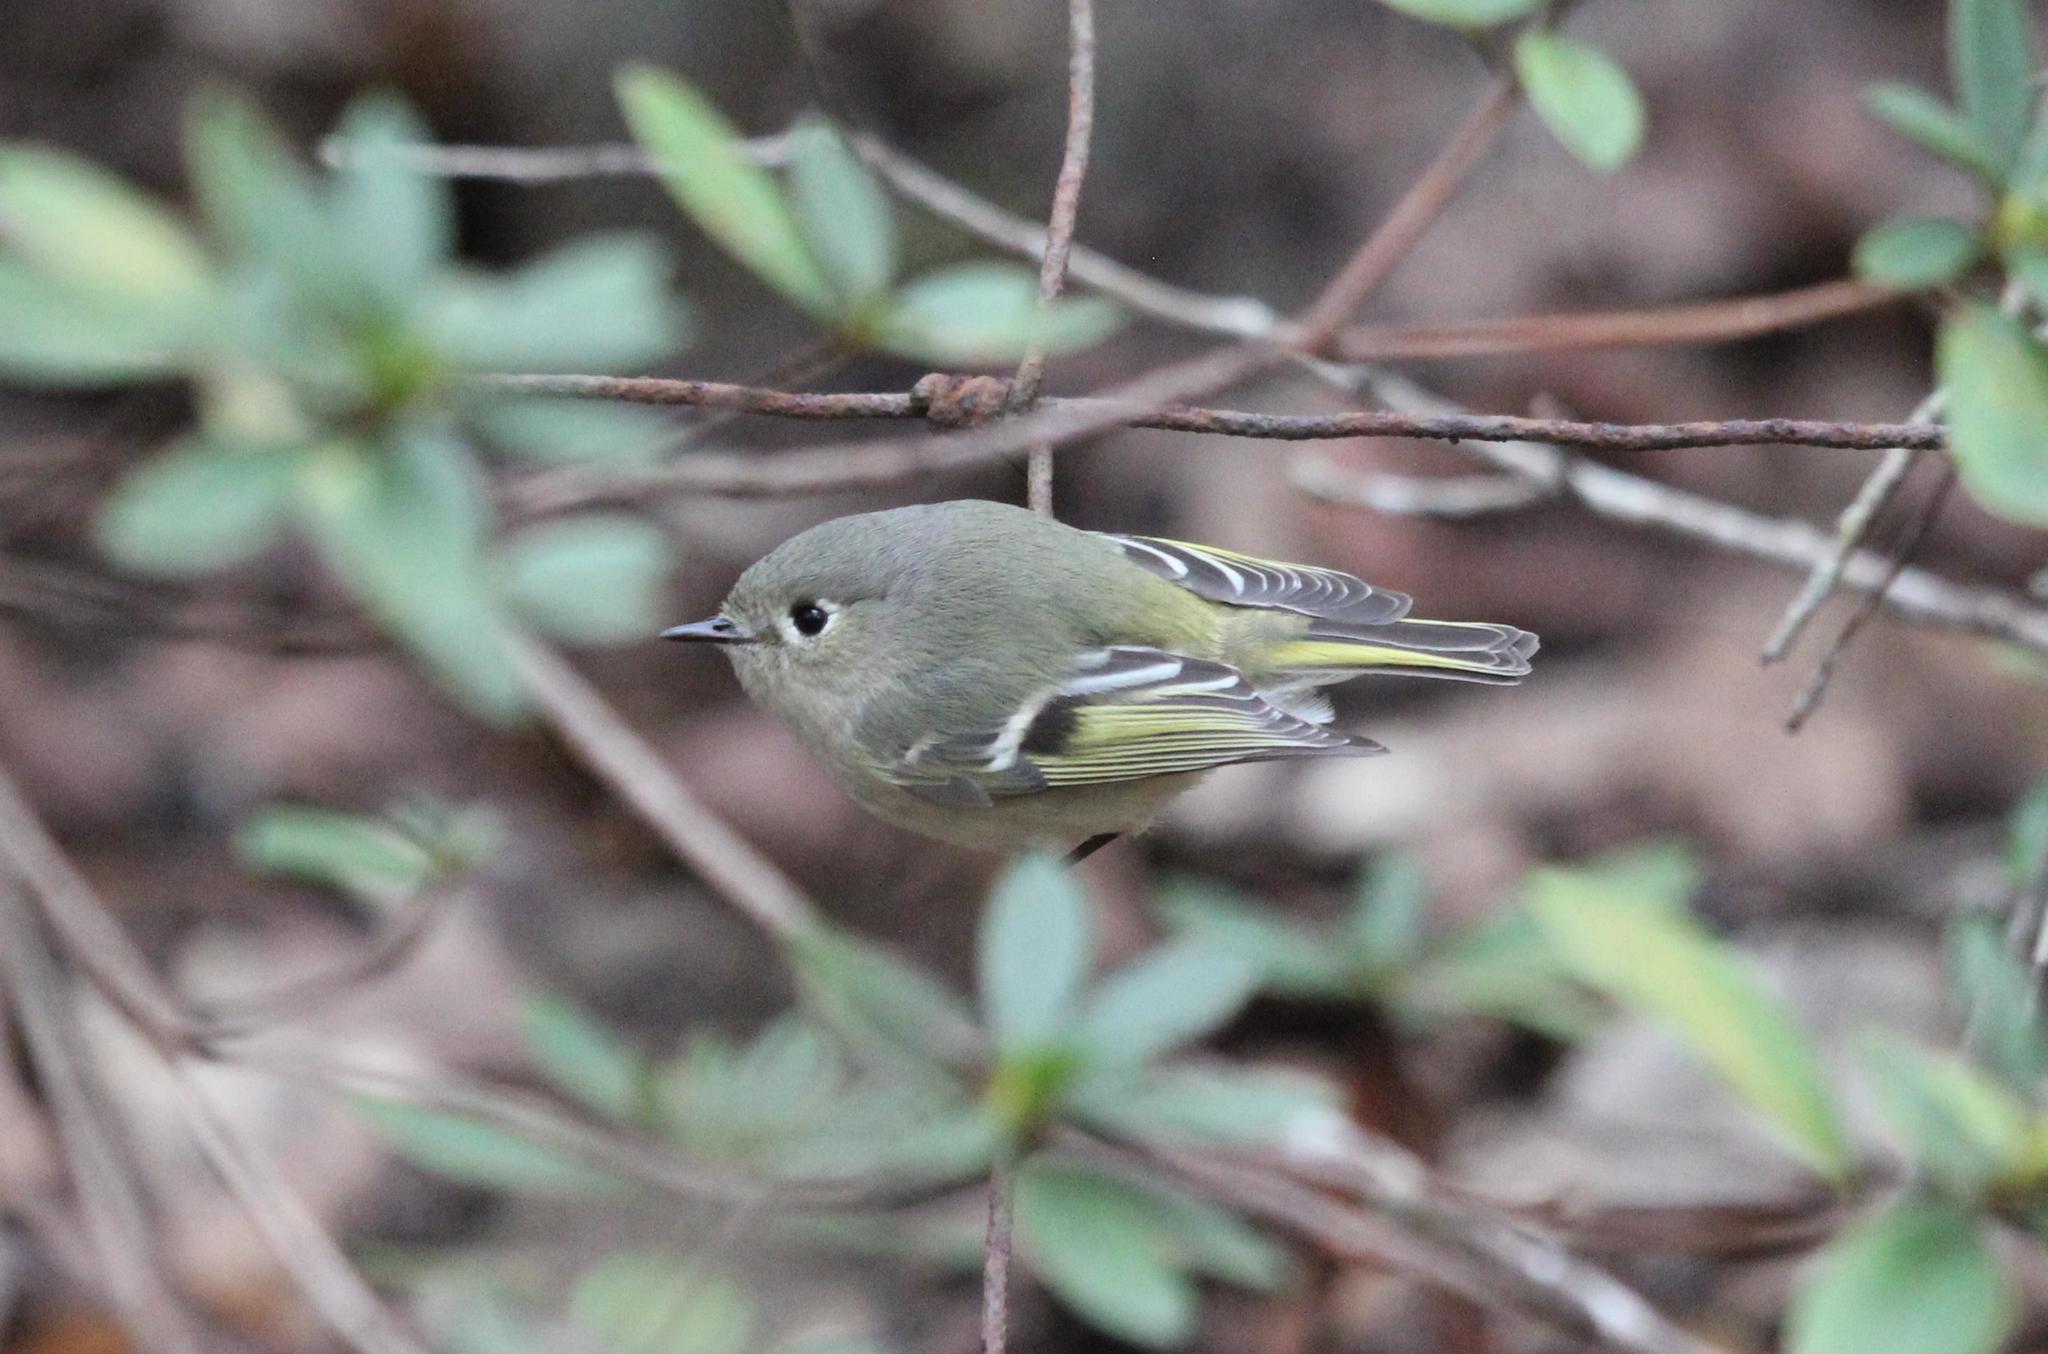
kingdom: Animalia
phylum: Chordata
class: Aves
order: Passeriformes
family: Regulidae
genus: Regulus
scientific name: Regulus calendula
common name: Ruby-crowned kinglet
